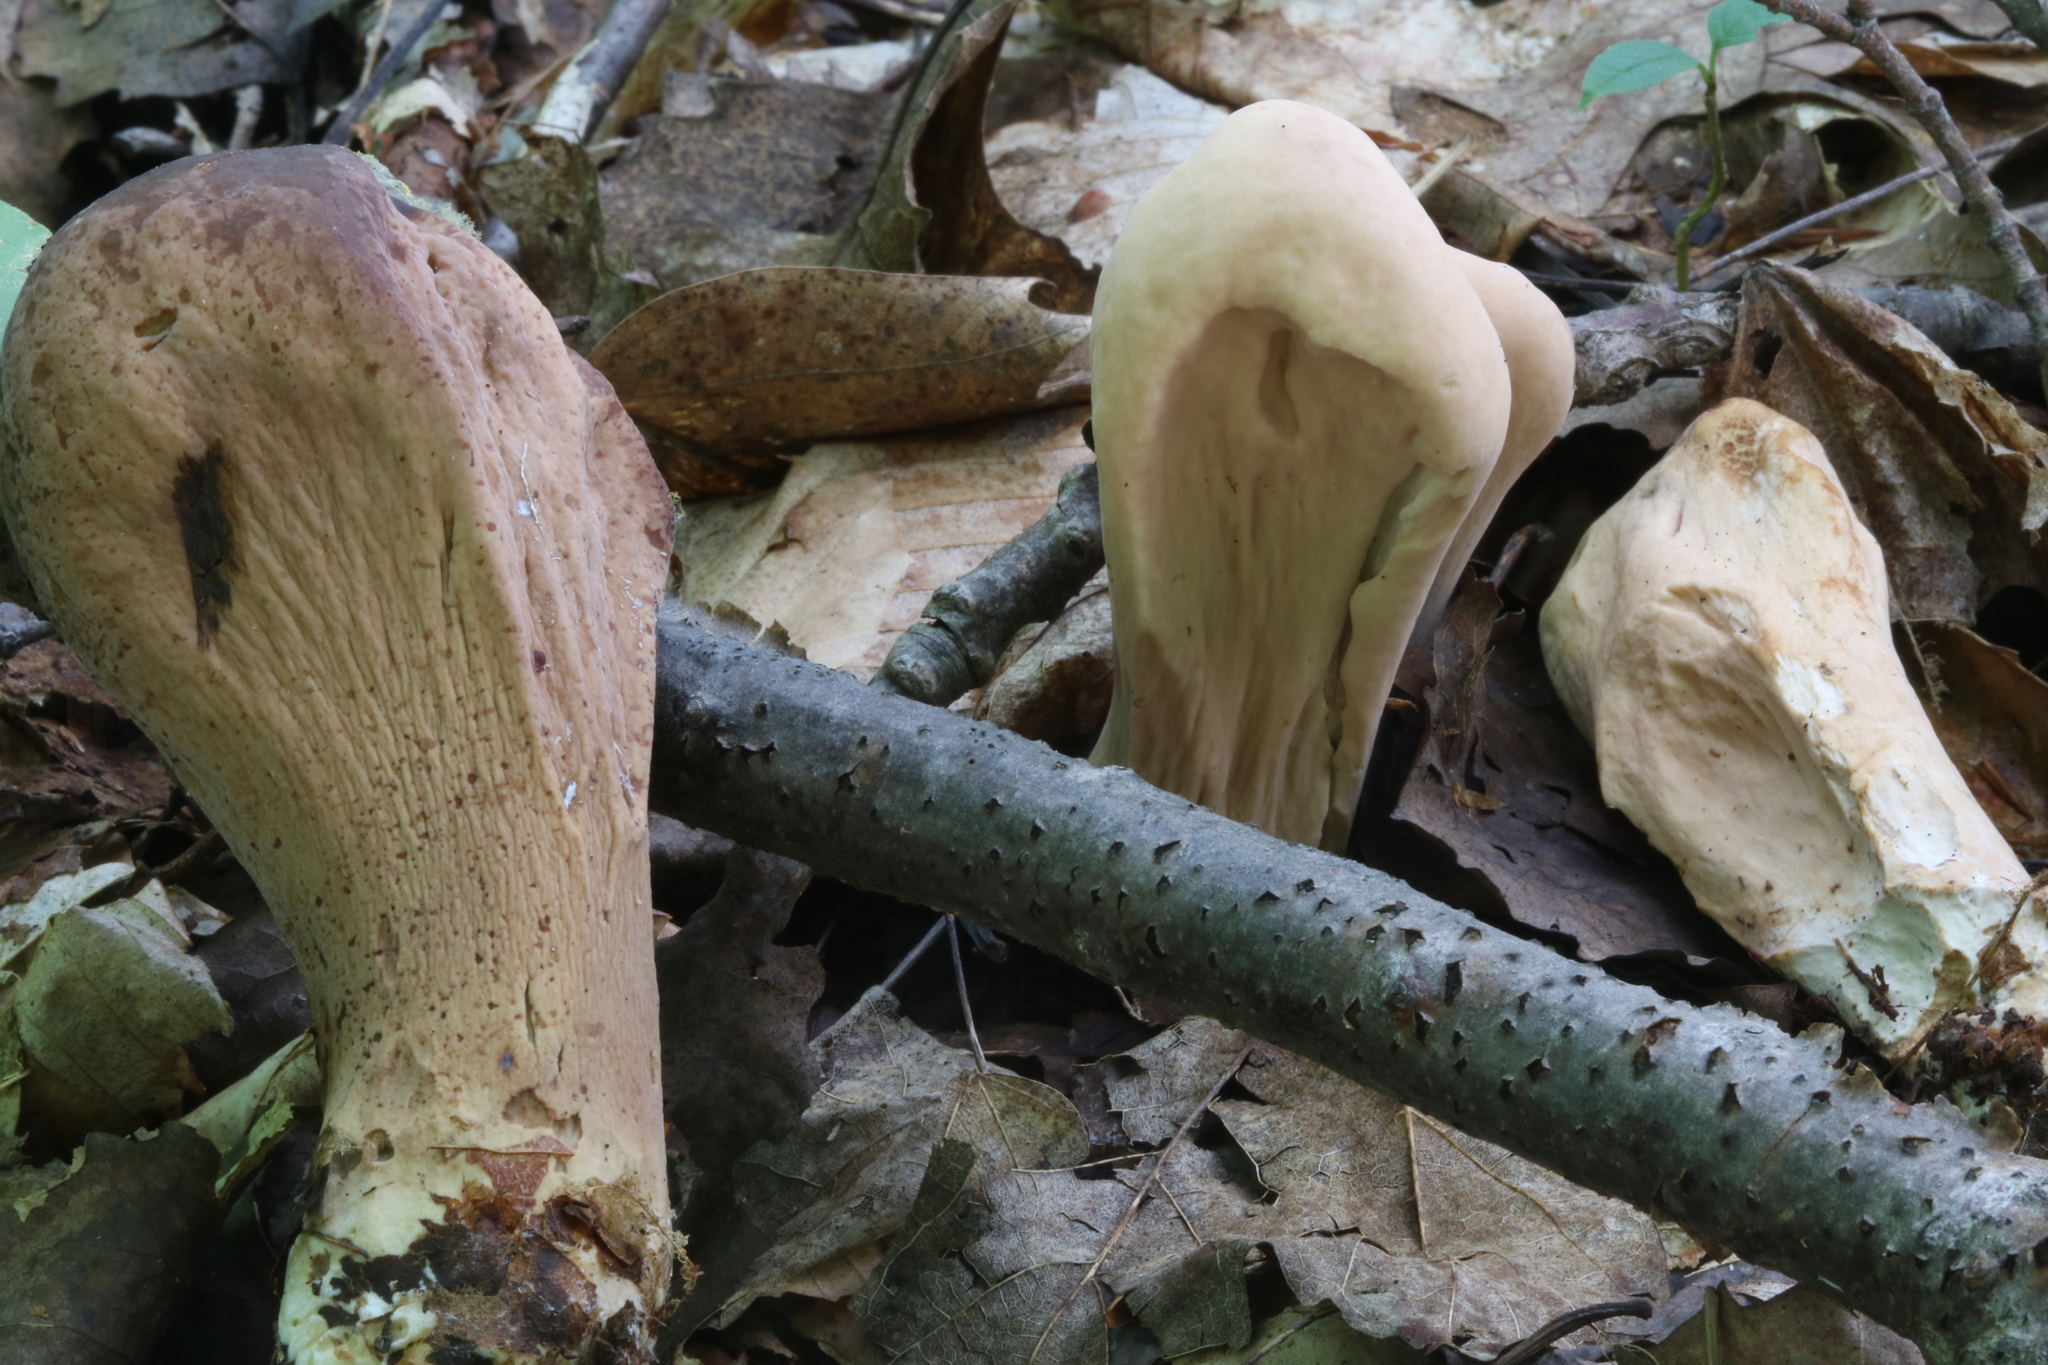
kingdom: Fungi
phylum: Basidiomycota
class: Agaricomycetes
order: Gomphales
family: Clavariadelphaceae
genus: Clavariadelphus
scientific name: Clavariadelphus americanus
